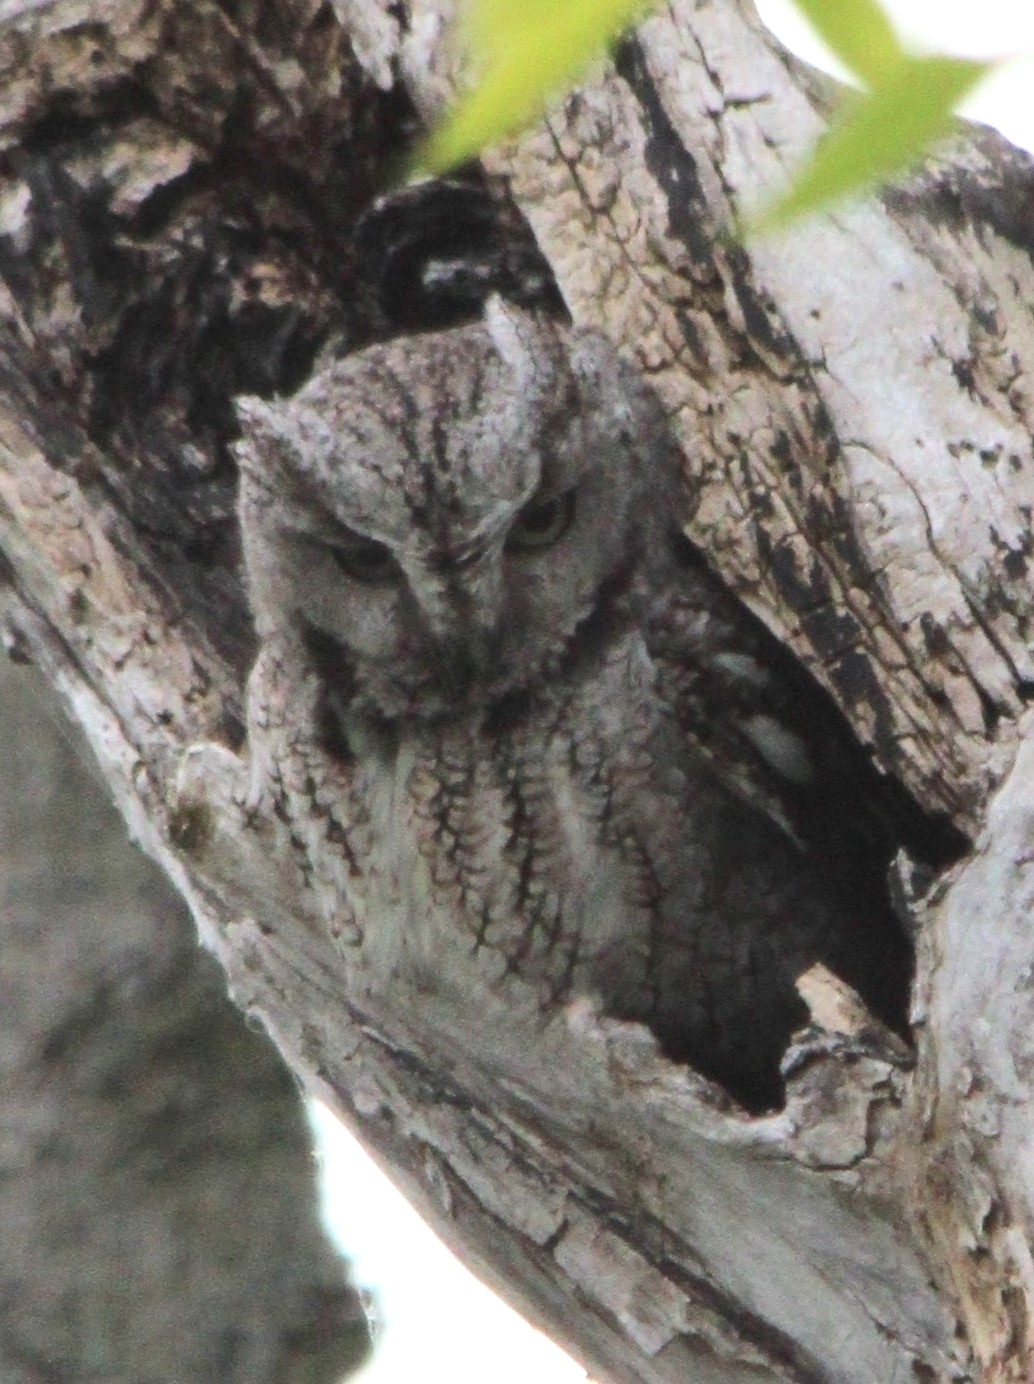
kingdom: Animalia
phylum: Chordata
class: Aves
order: Strigiformes
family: Strigidae
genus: Megascops
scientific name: Megascops asio
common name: Eastern screech-owl
